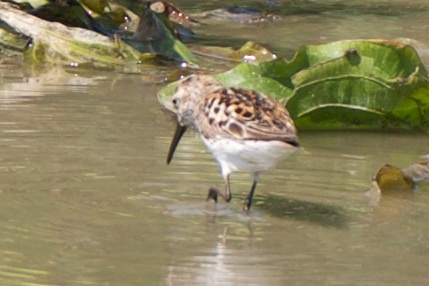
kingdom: Animalia
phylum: Chordata
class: Aves
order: Charadriiformes
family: Scolopacidae
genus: Calidris
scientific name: Calidris mauri
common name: Western sandpiper
